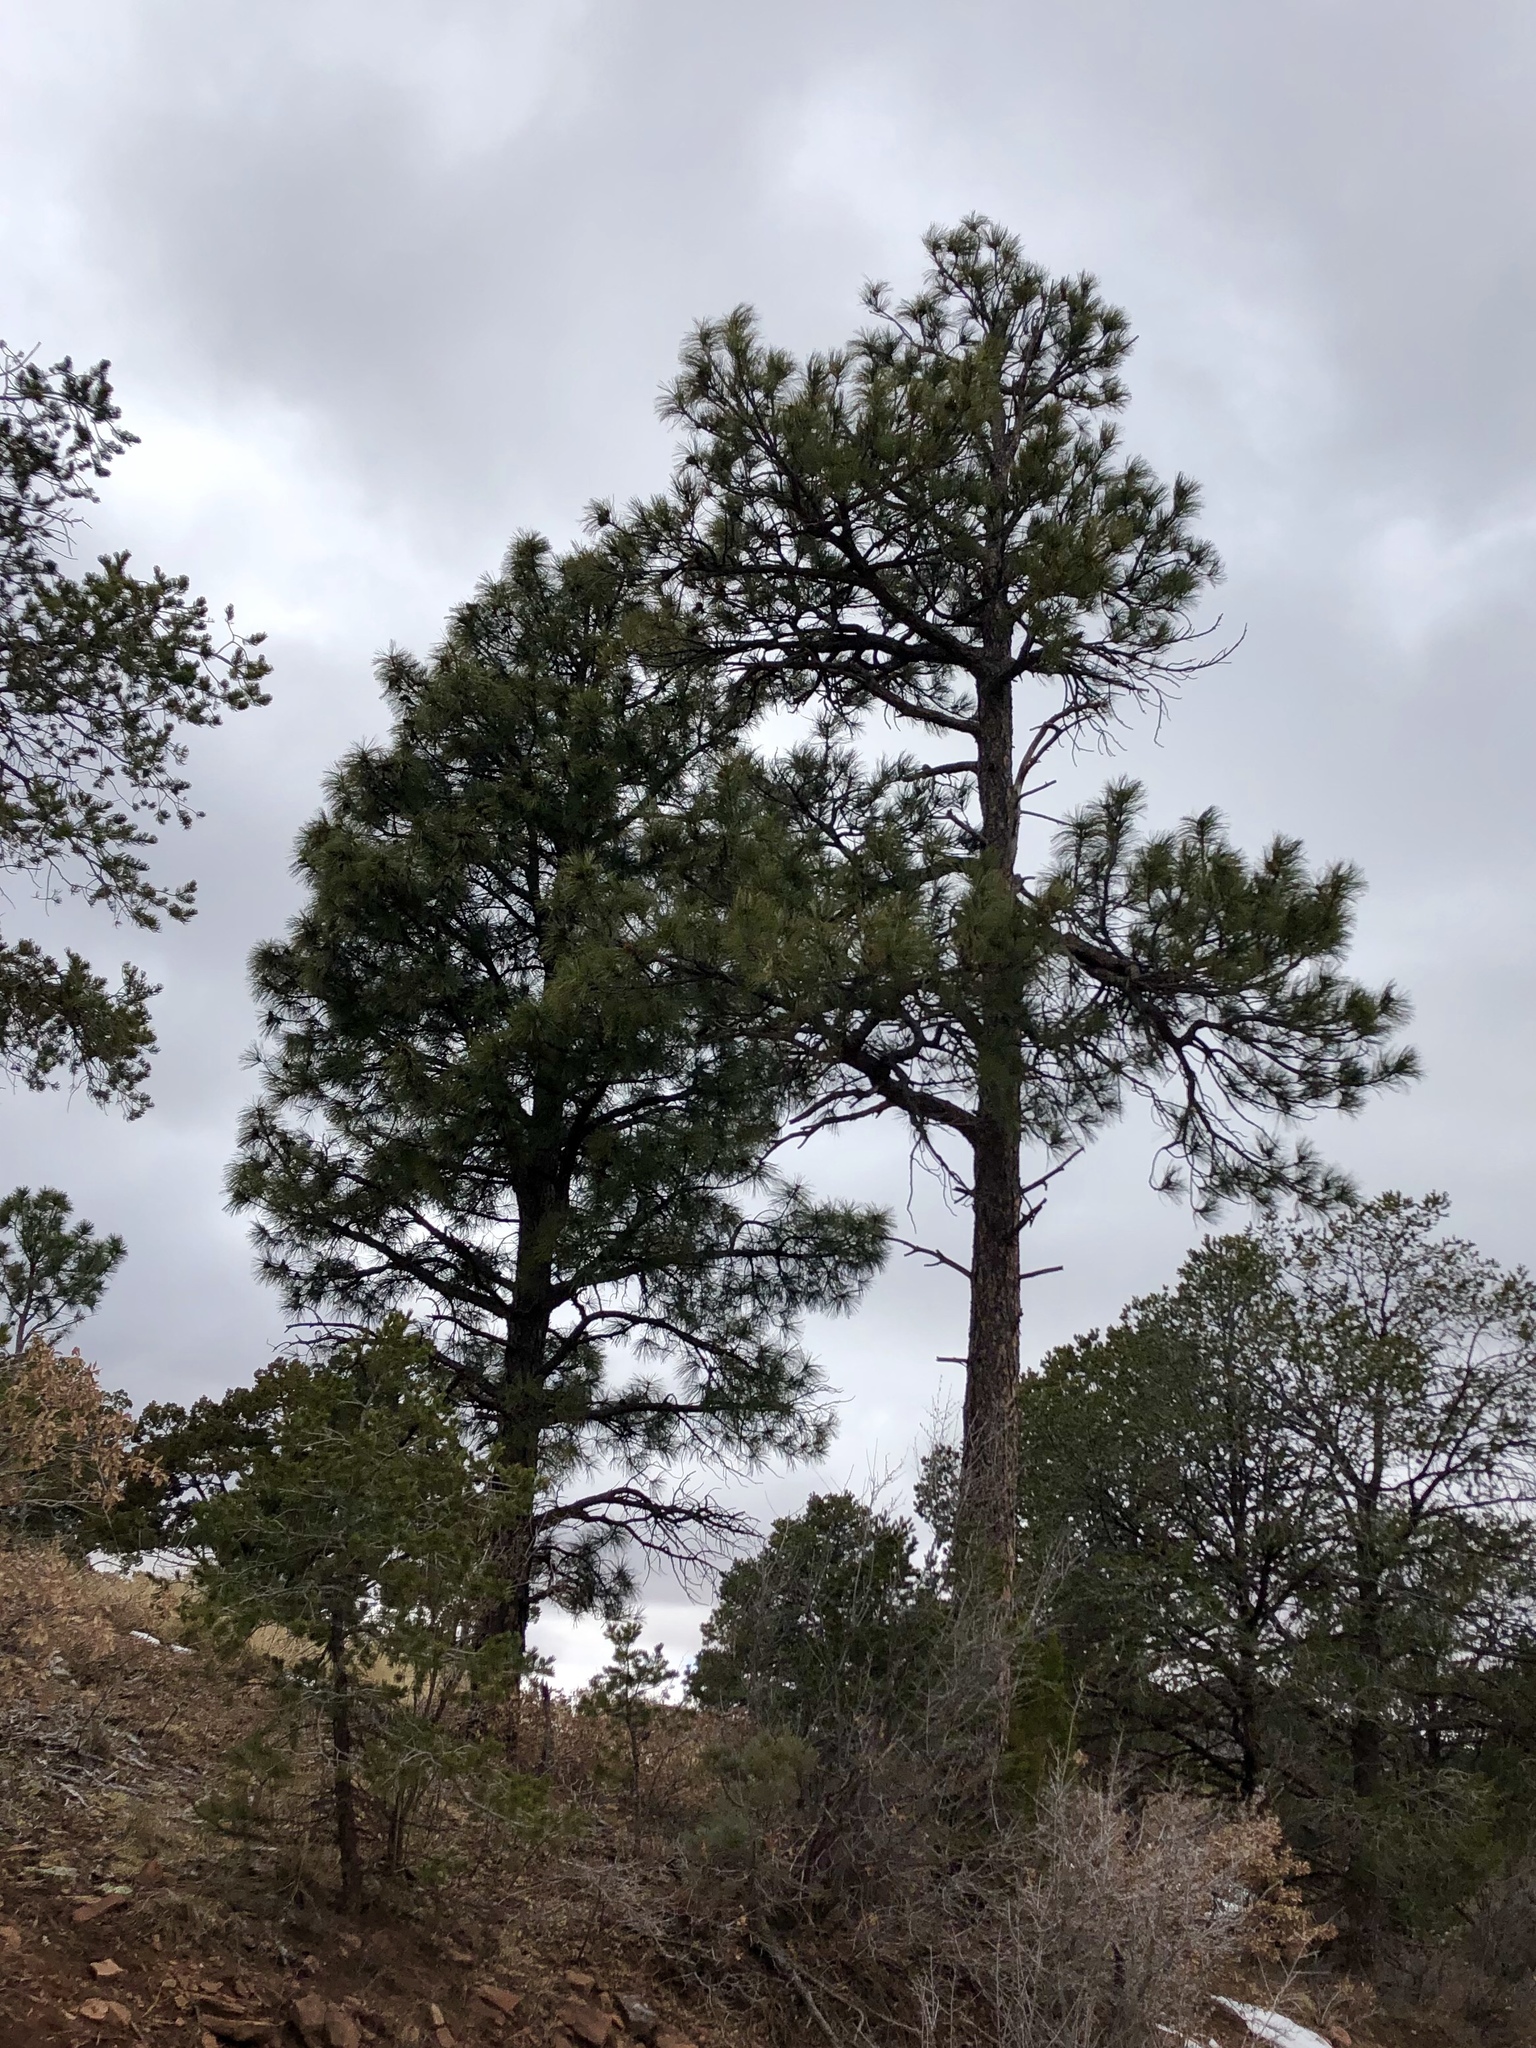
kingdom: Plantae
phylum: Tracheophyta
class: Pinopsida
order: Pinales
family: Pinaceae
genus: Pinus
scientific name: Pinus ponderosa
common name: Western yellow-pine
